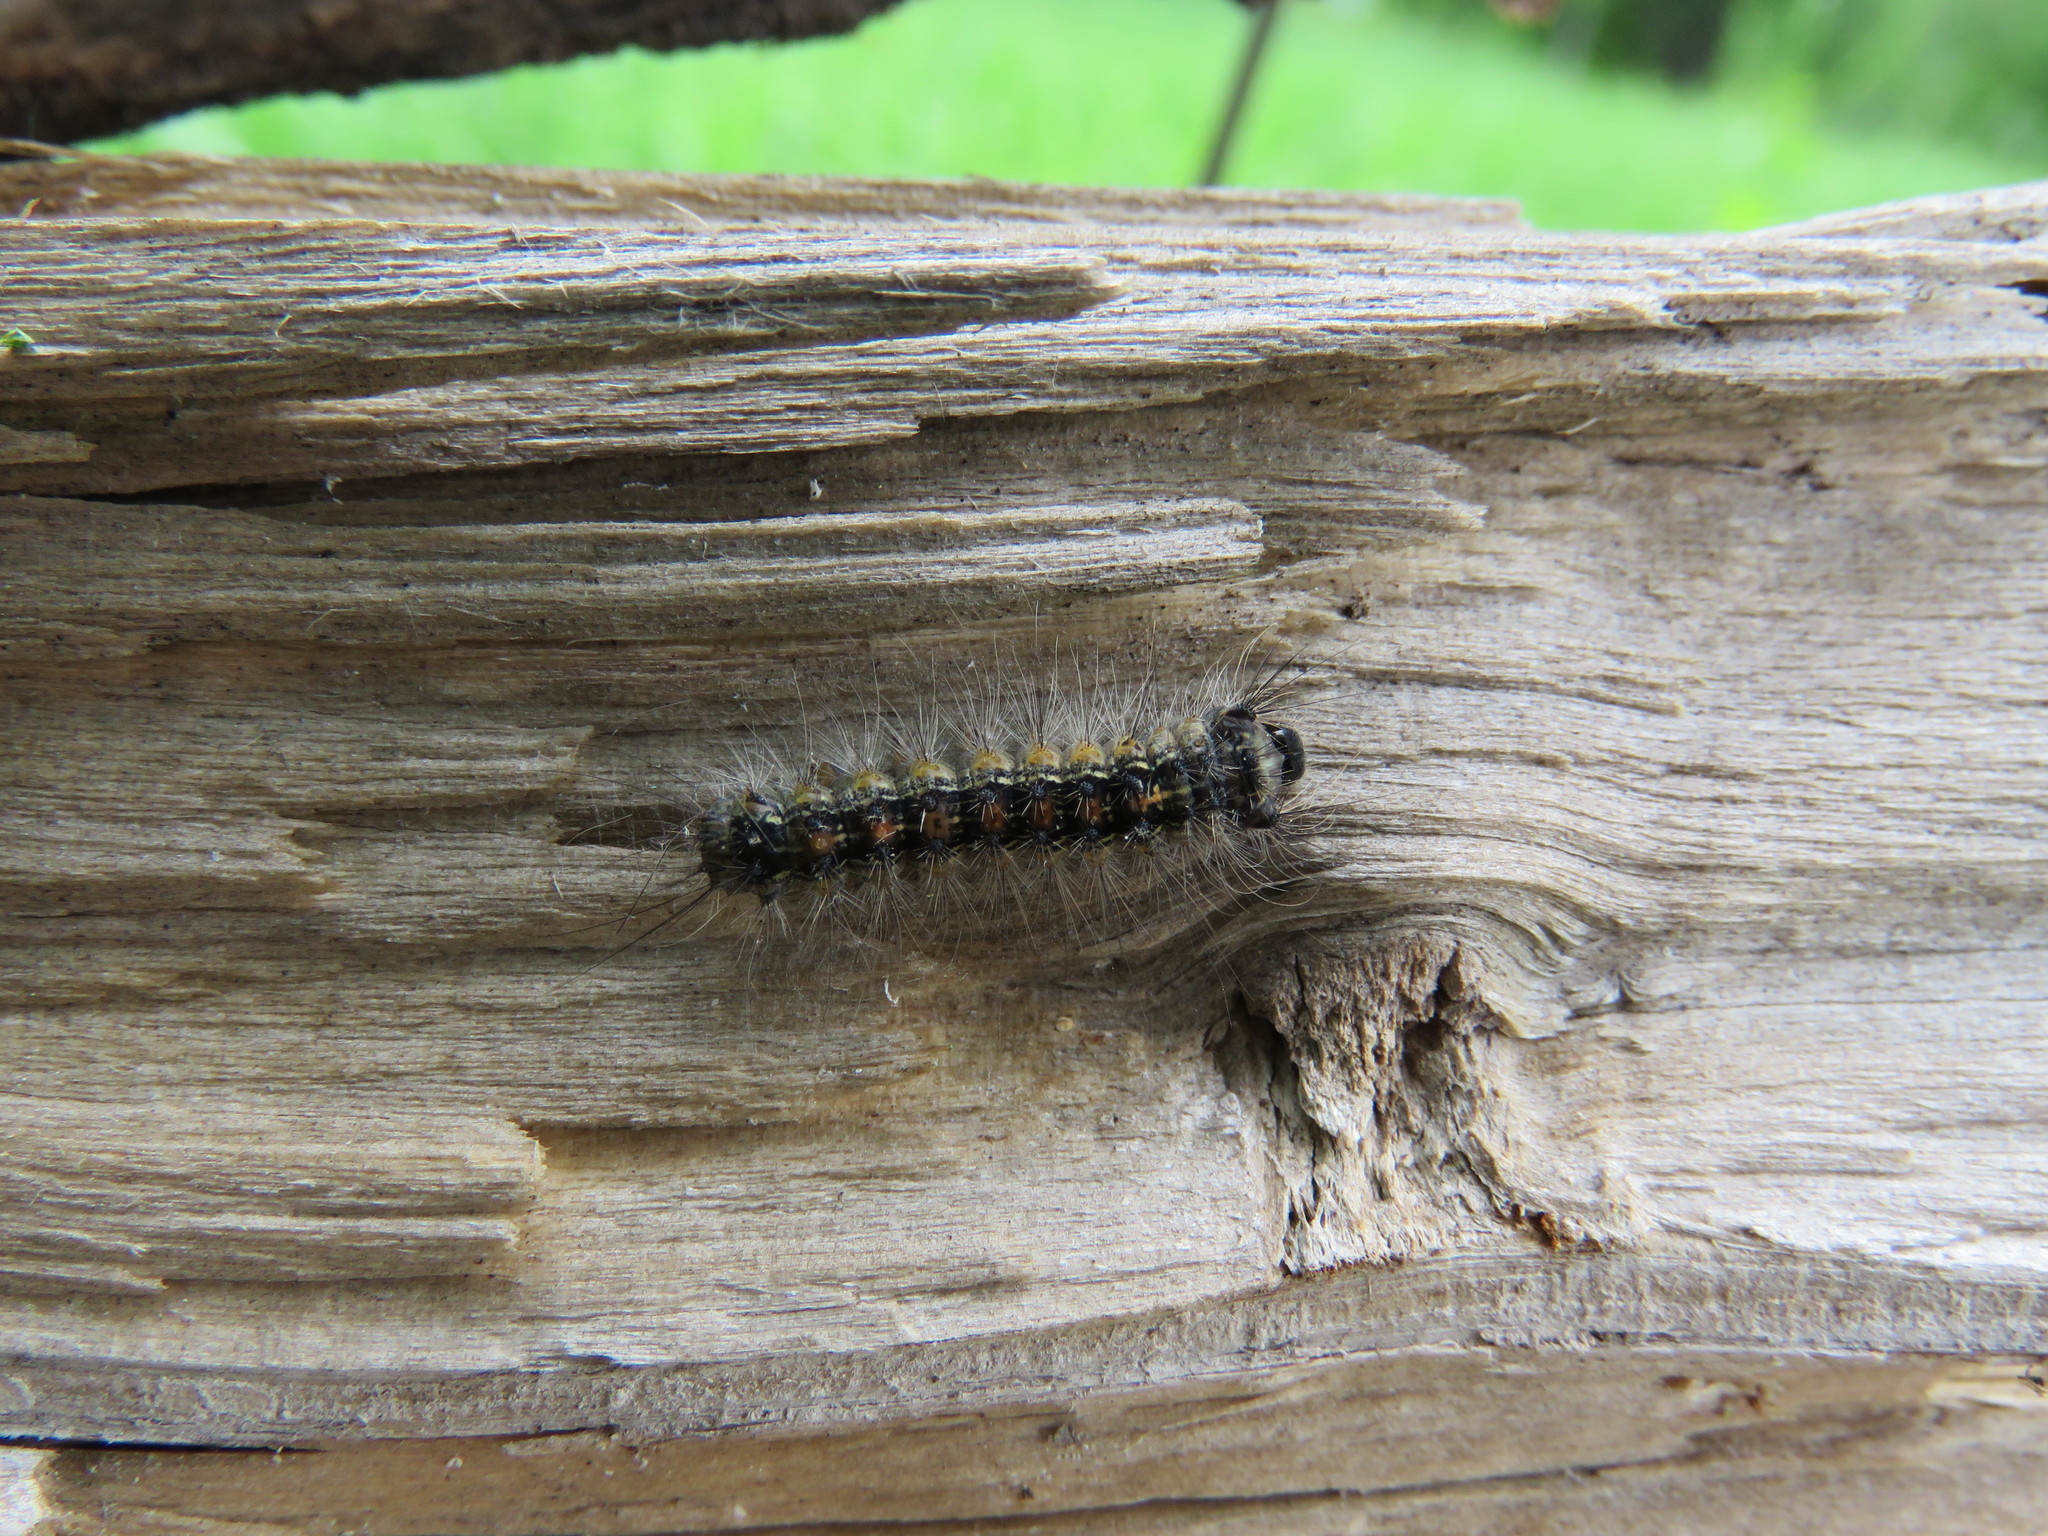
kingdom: Animalia
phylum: Arthropoda
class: Insecta
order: Lepidoptera
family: Erebidae
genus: Lymantria
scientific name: Lymantria dispar
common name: Gypsy moth
